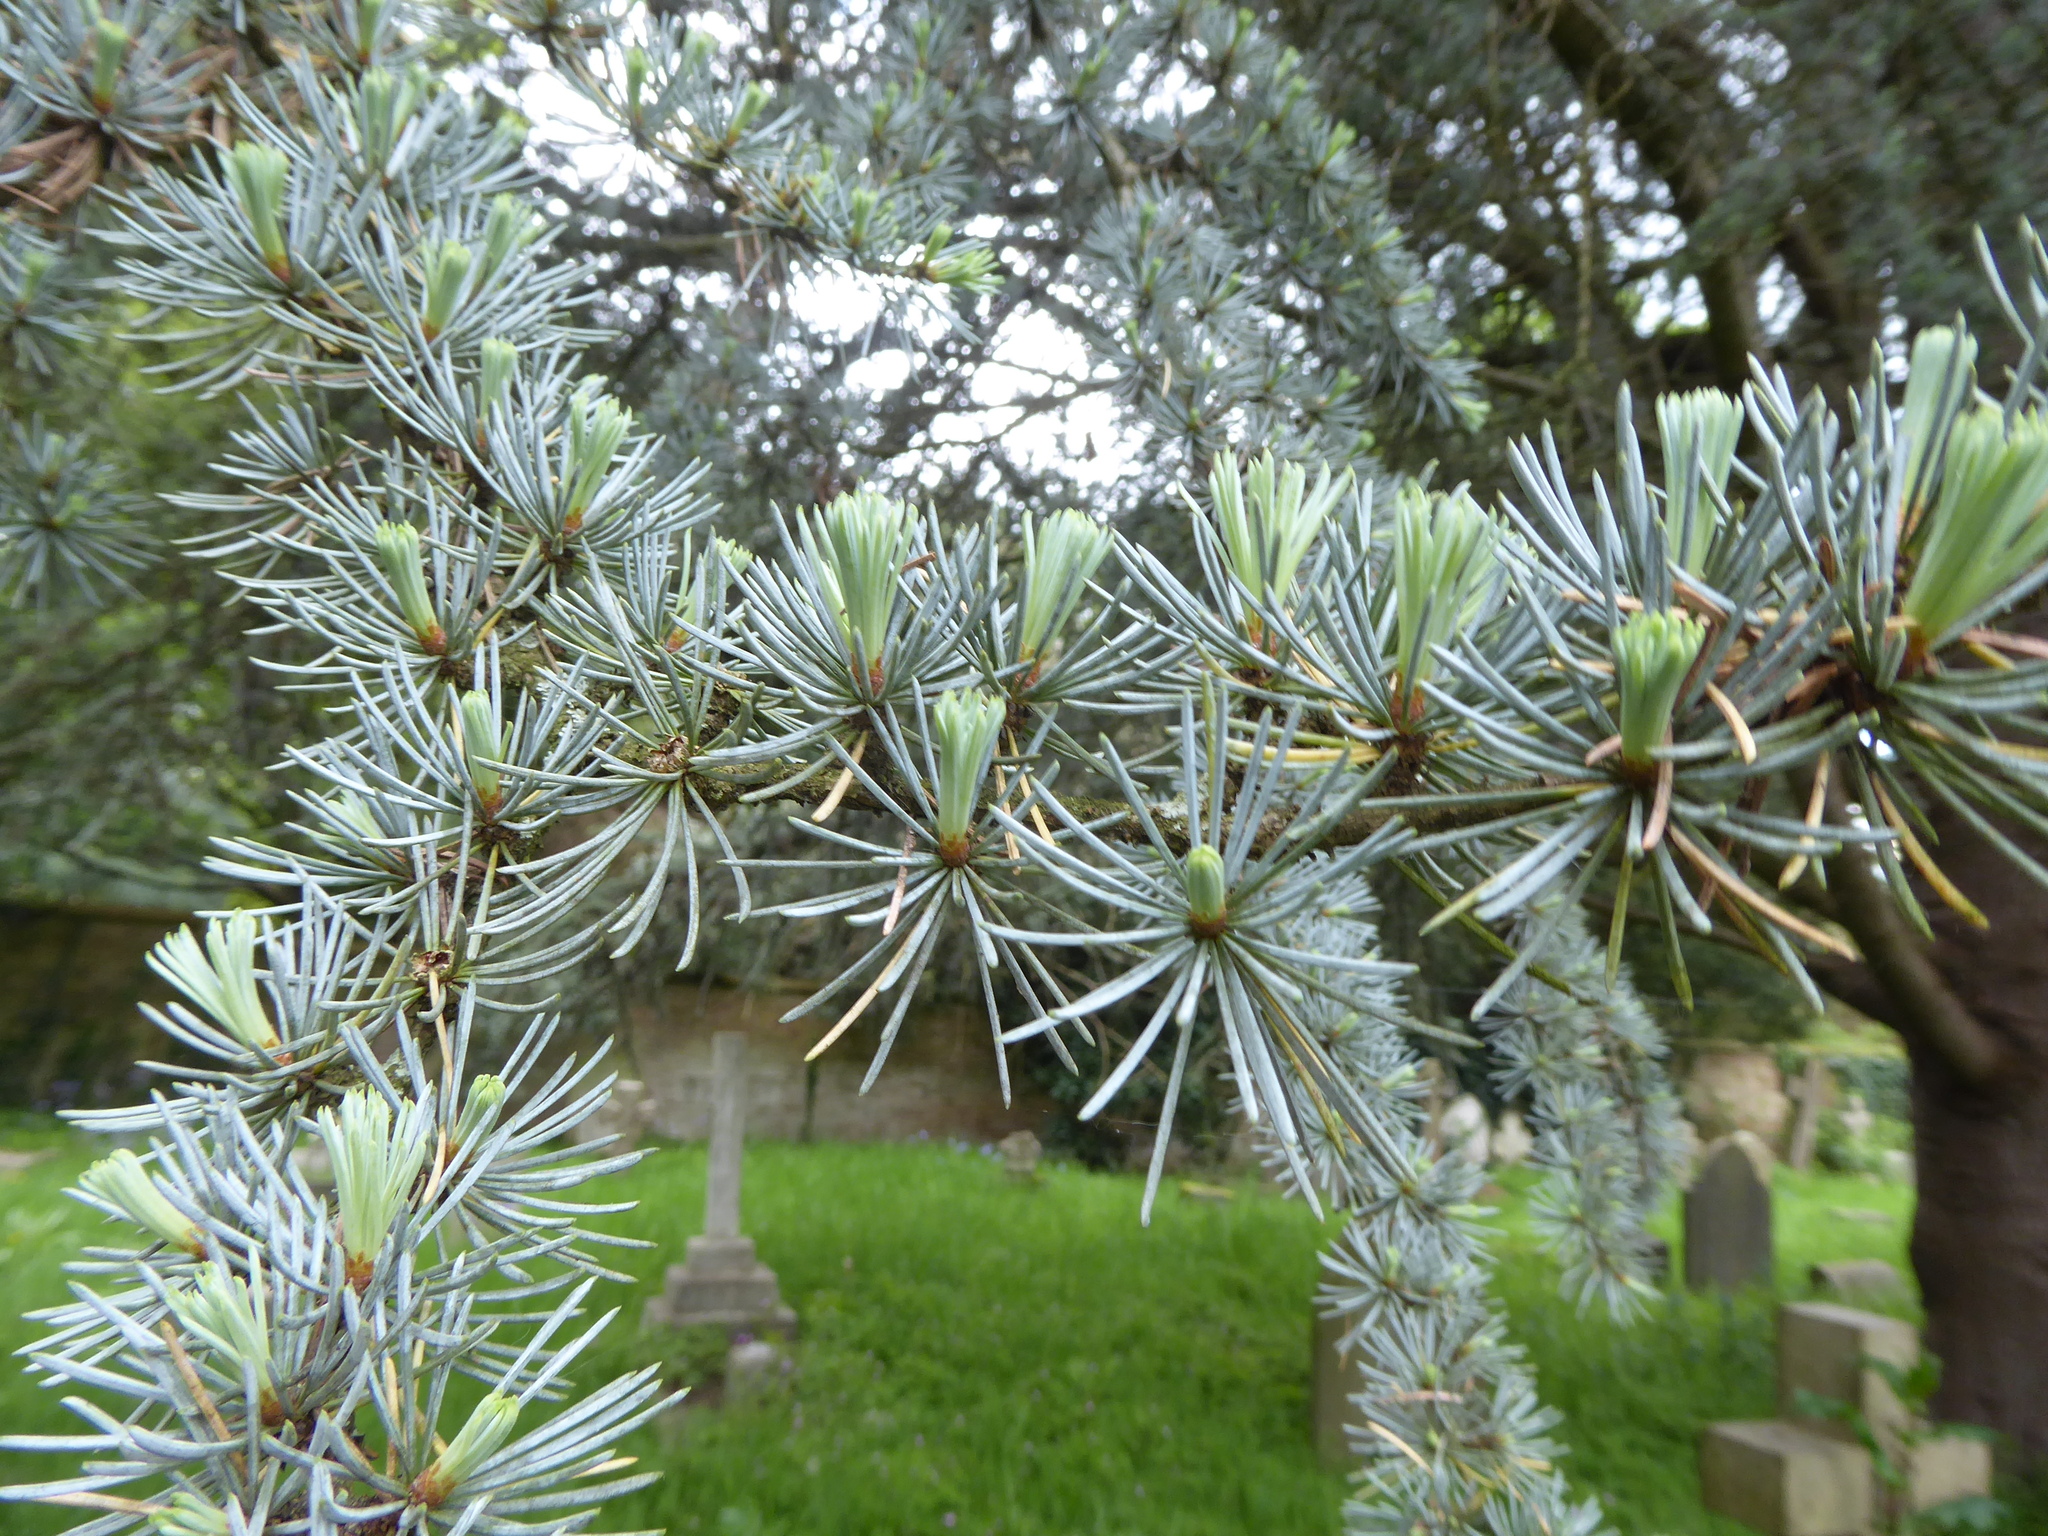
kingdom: Plantae
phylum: Tracheophyta
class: Pinopsida
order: Pinales
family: Pinaceae
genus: Cedrus
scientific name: Cedrus atlantica
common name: Atlas cedar
